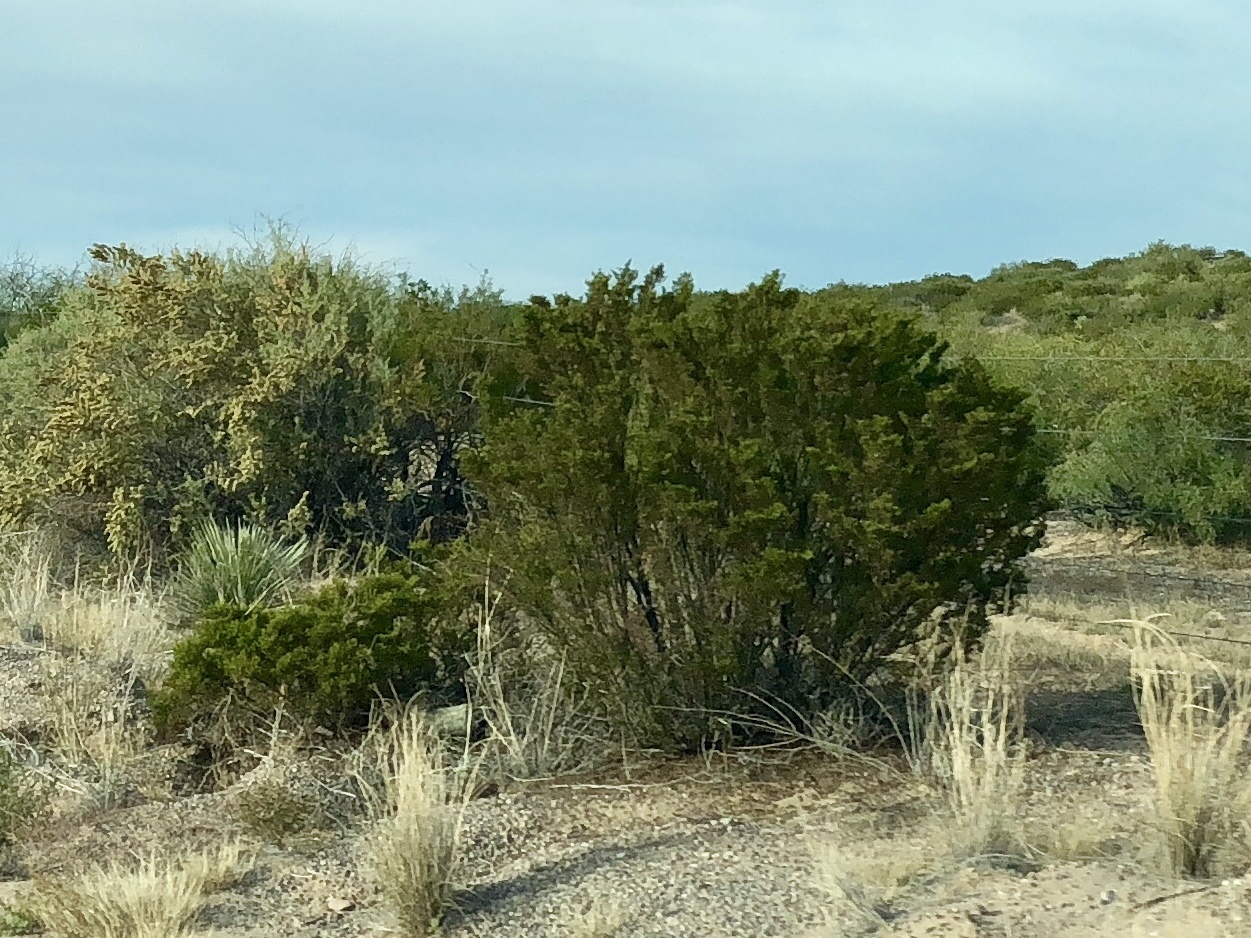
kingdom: Plantae
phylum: Tracheophyta
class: Magnoliopsida
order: Zygophyllales
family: Zygophyllaceae
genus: Larrea
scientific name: Larrea tridentata
